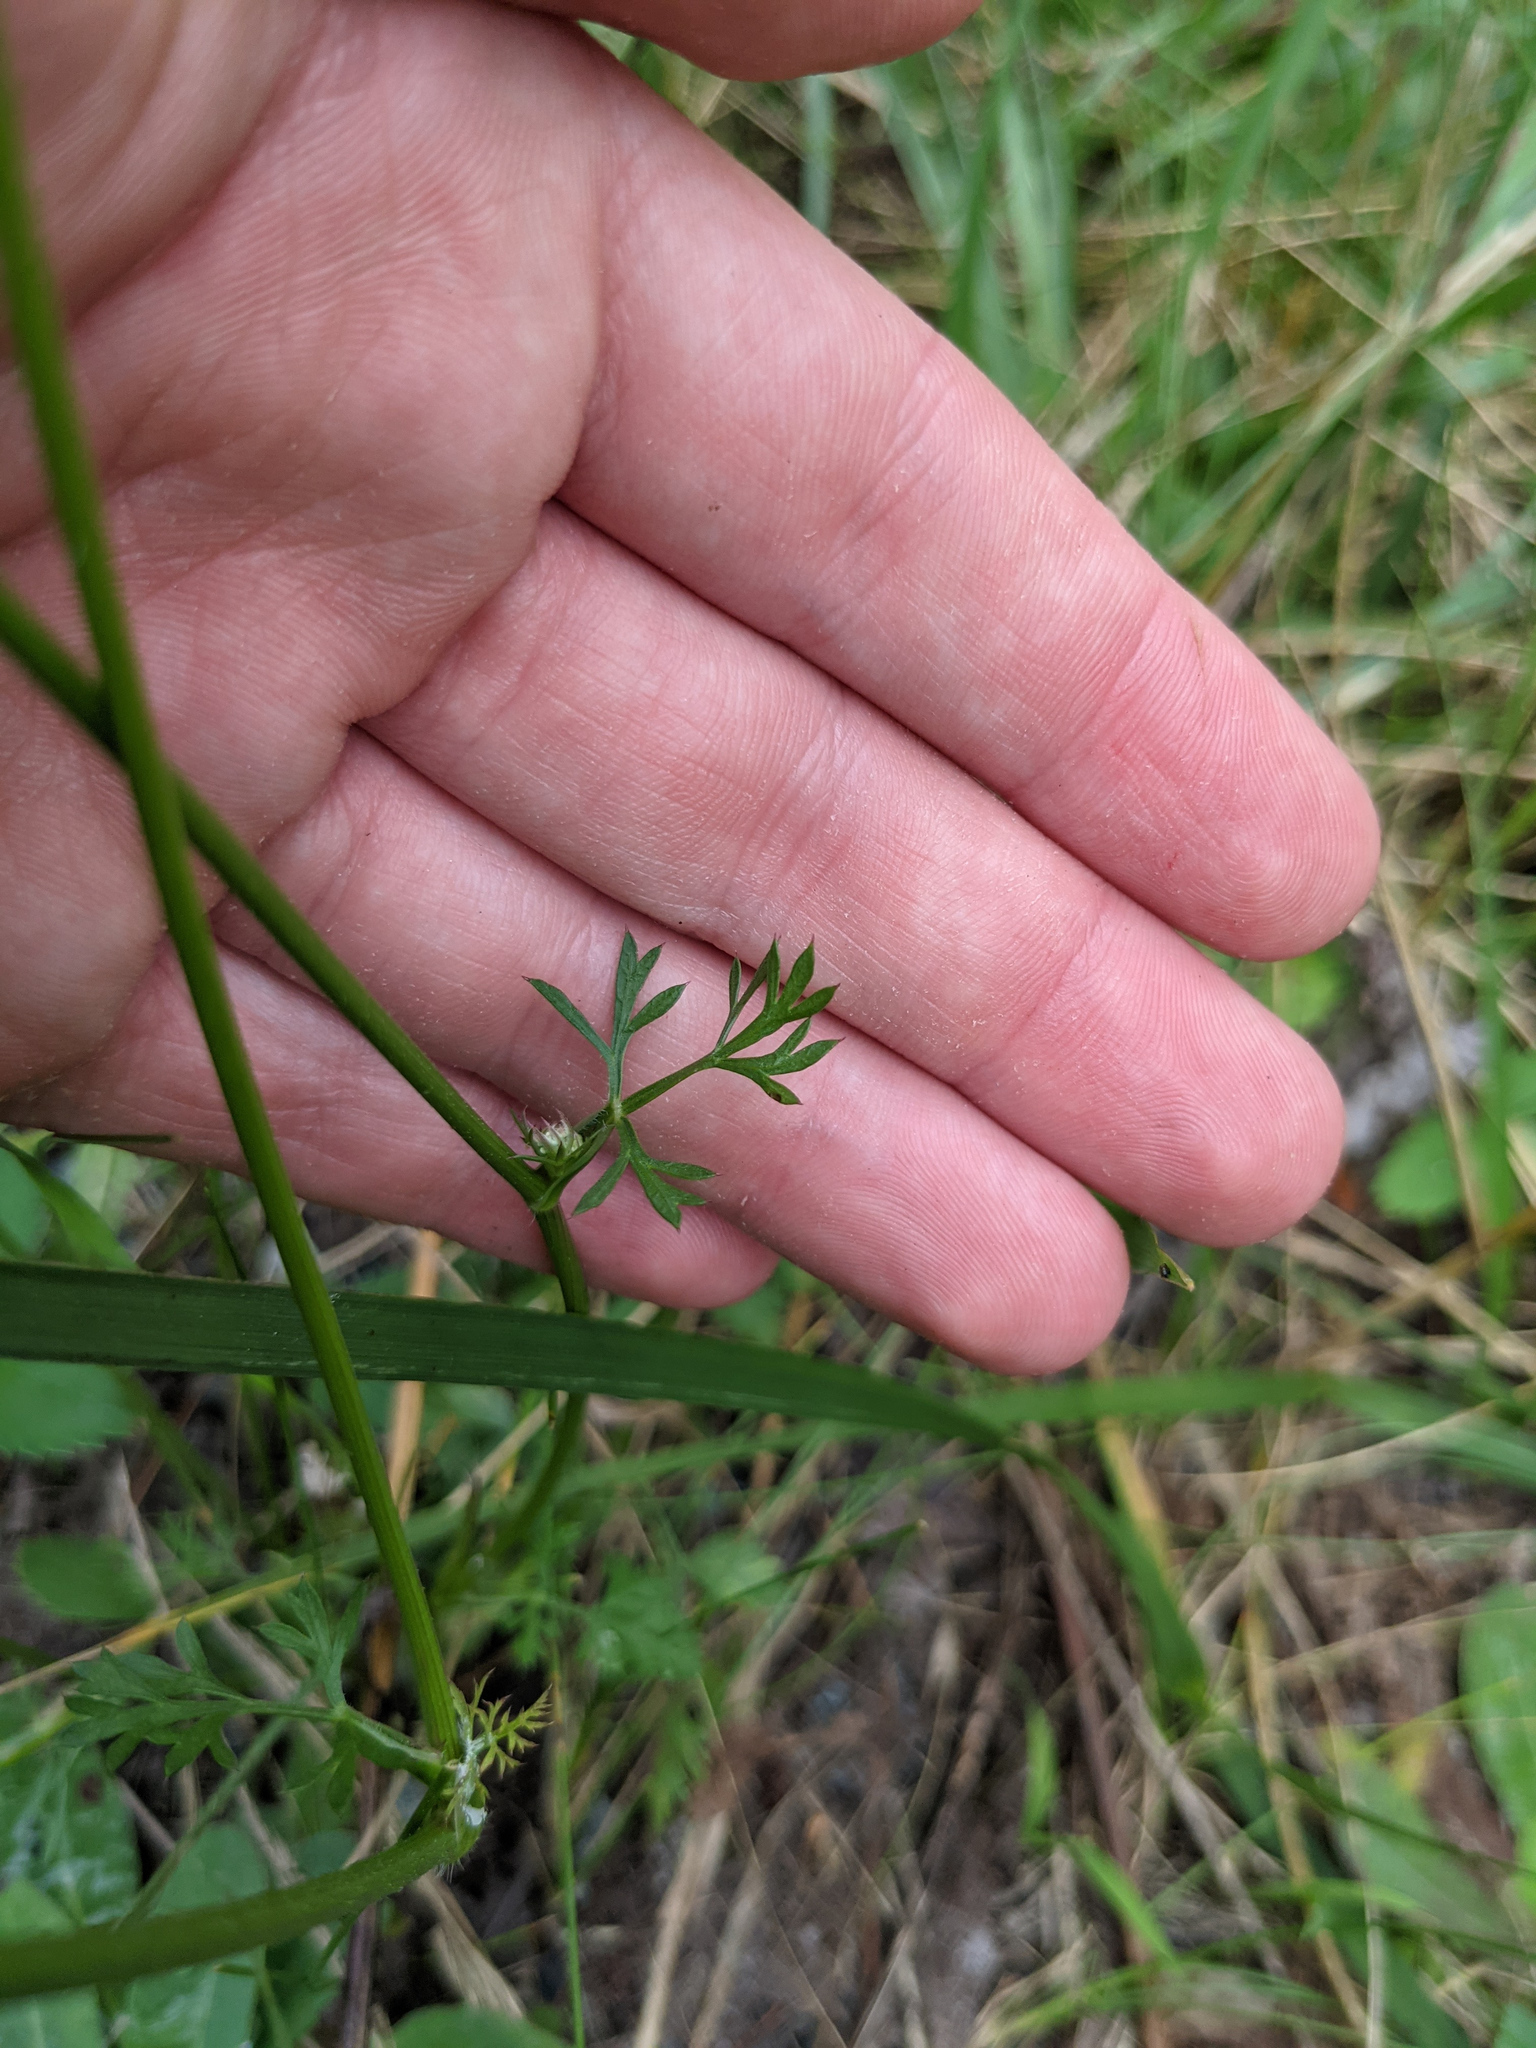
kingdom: Plantae
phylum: Tracheophyta
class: Magnoliopsida
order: Apiales
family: Apiaceae
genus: Daucus
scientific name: Daucus carota
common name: Wild carrot
